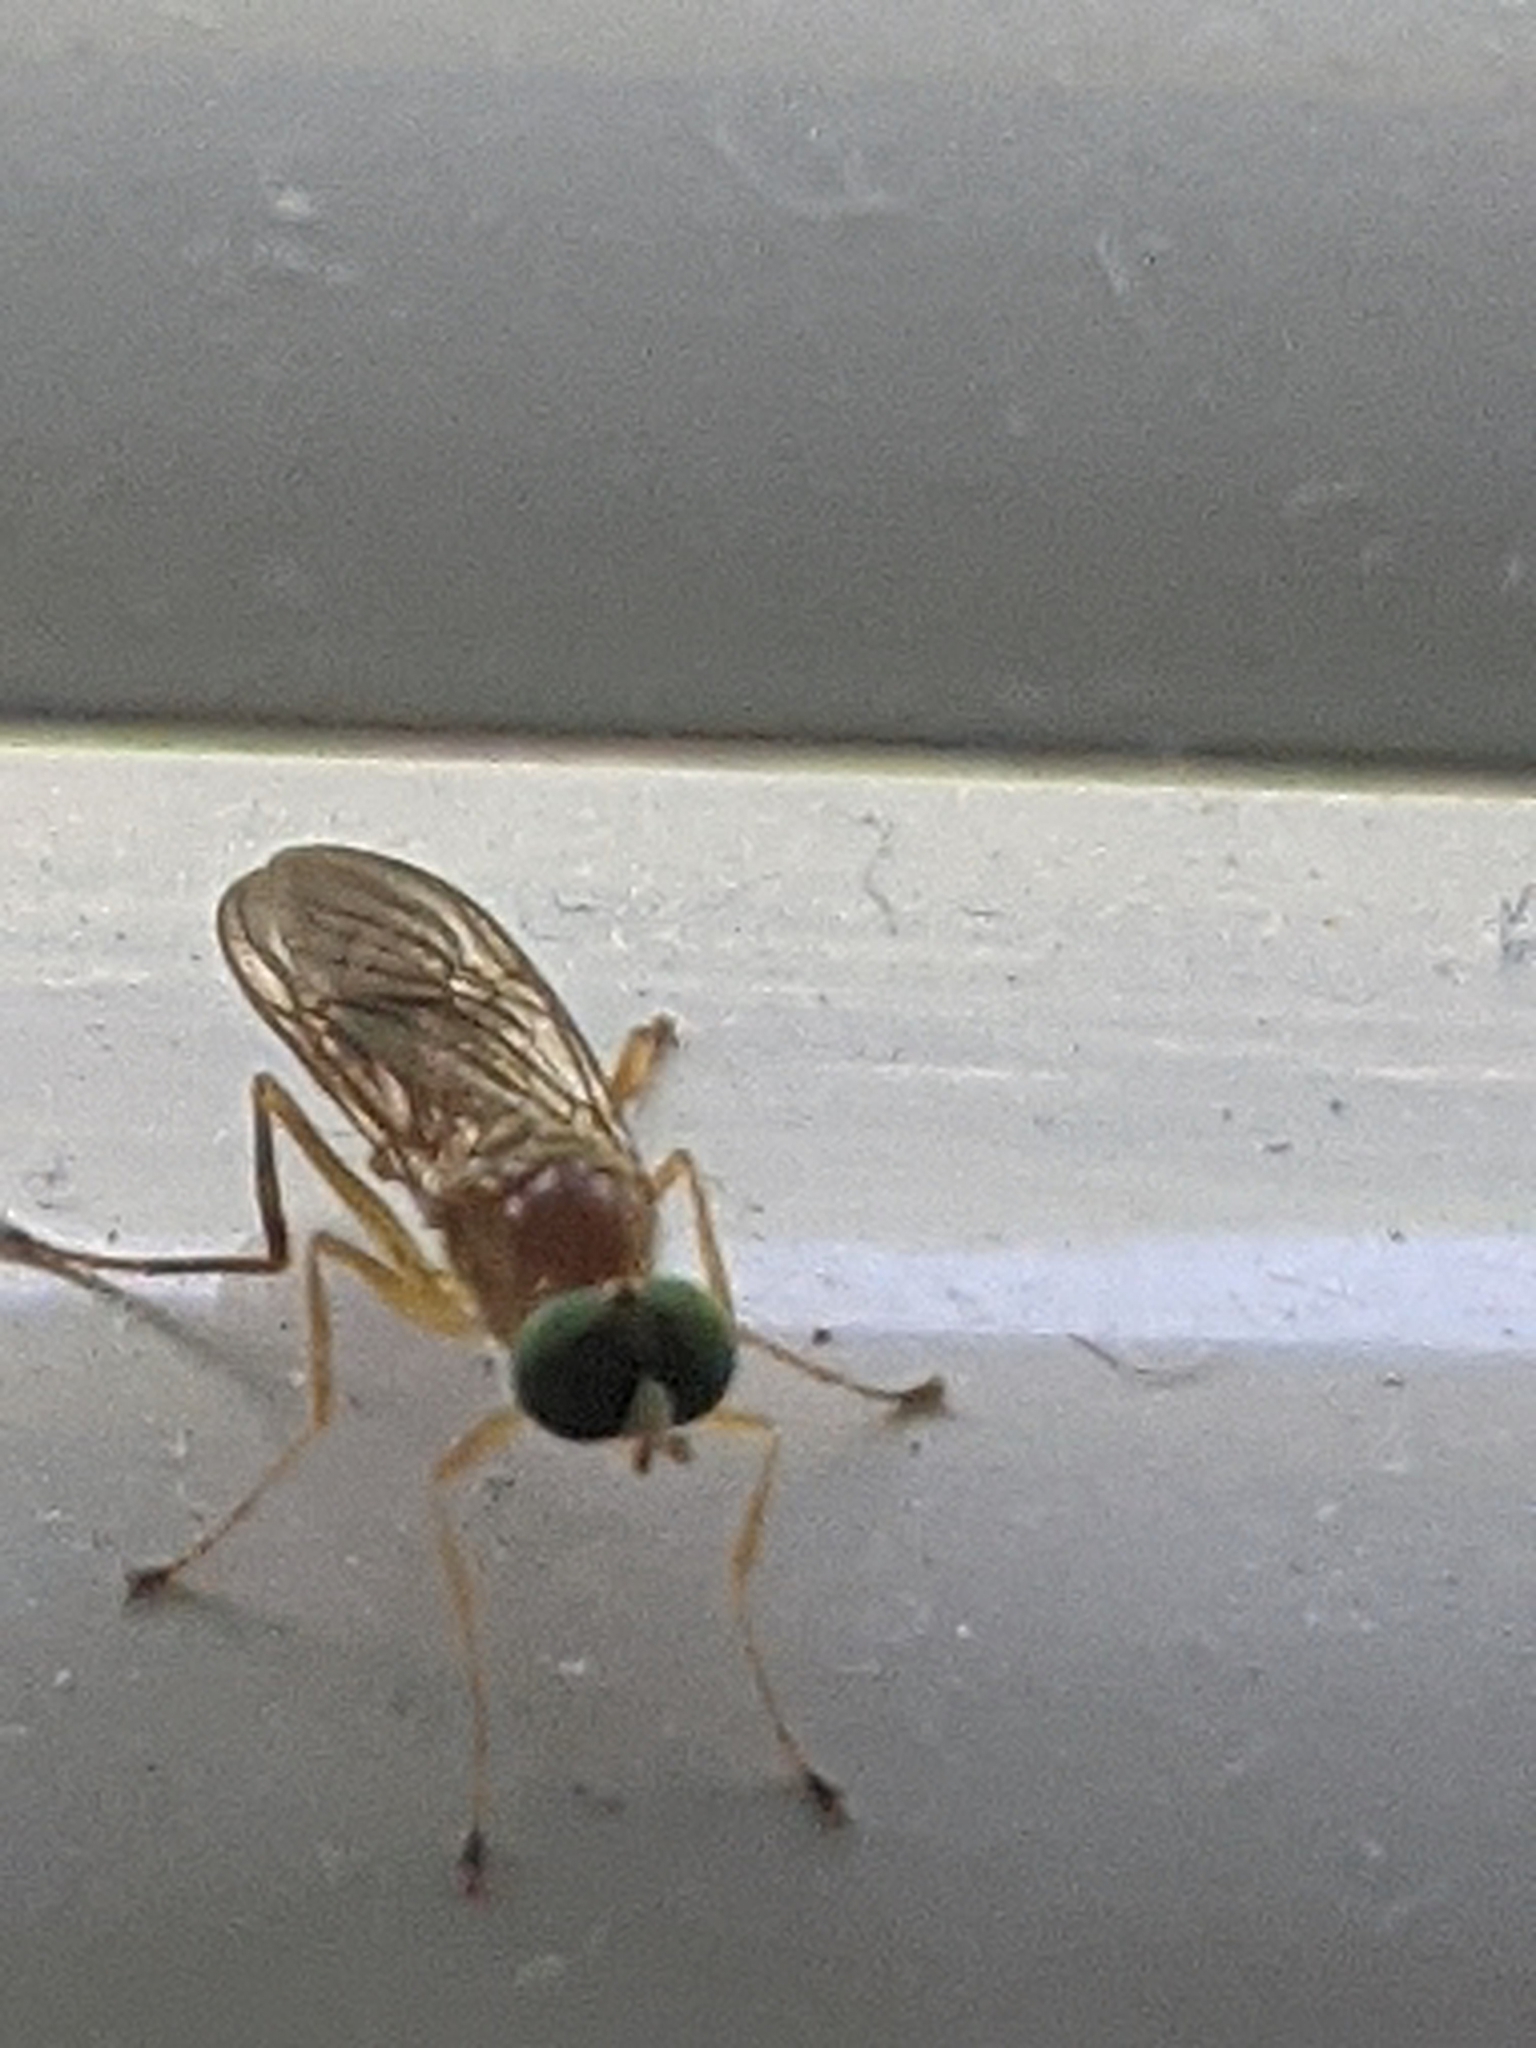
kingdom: Animalia
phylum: Arthropoda
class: Insecta
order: Diptera
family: Stratiomyidae
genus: Ptecticus
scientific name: Ptecticus trivittatus
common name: Compost fly
